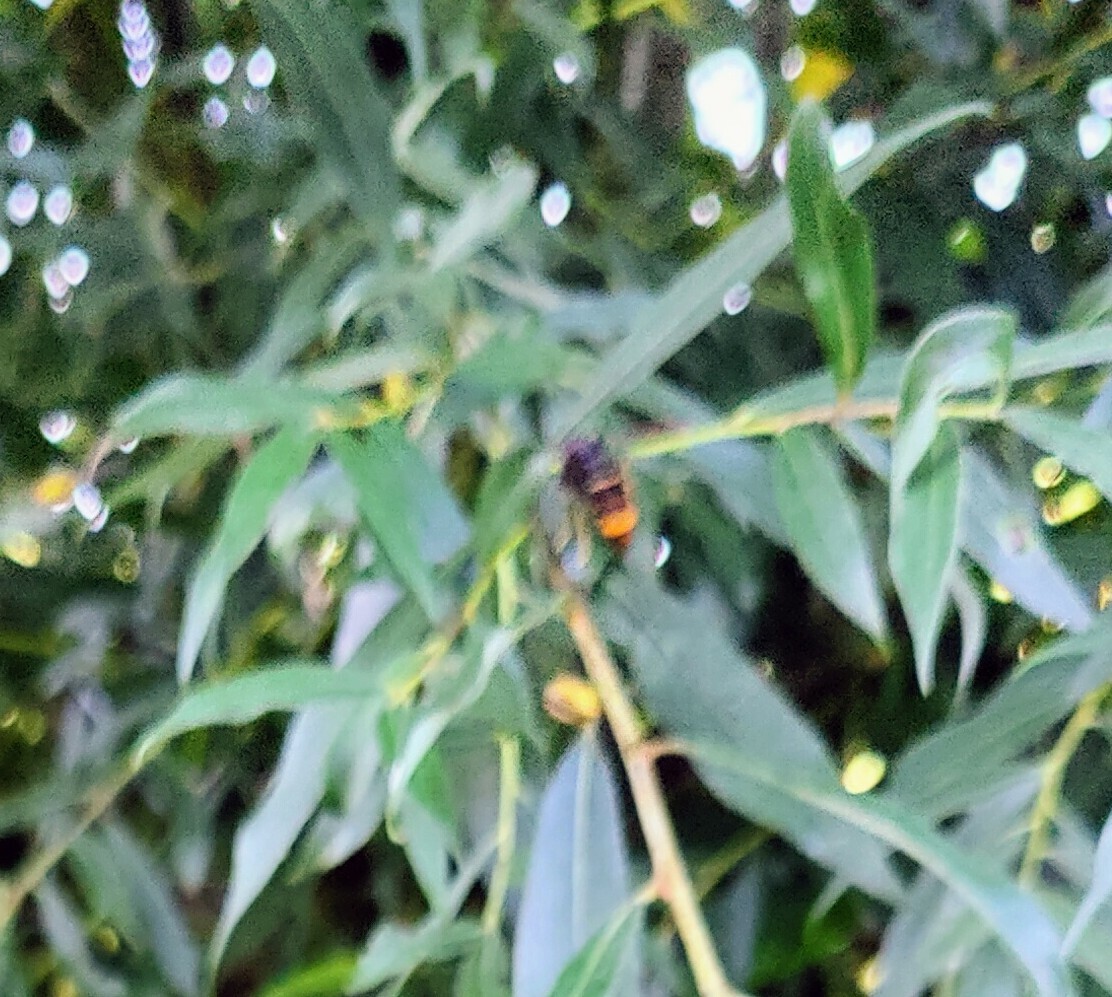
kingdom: Animalia
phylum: Arthropoda
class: Insecta
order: Hymenoptera
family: Vespidae
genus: Vespa
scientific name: Vespa velutina
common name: Asian hornet
